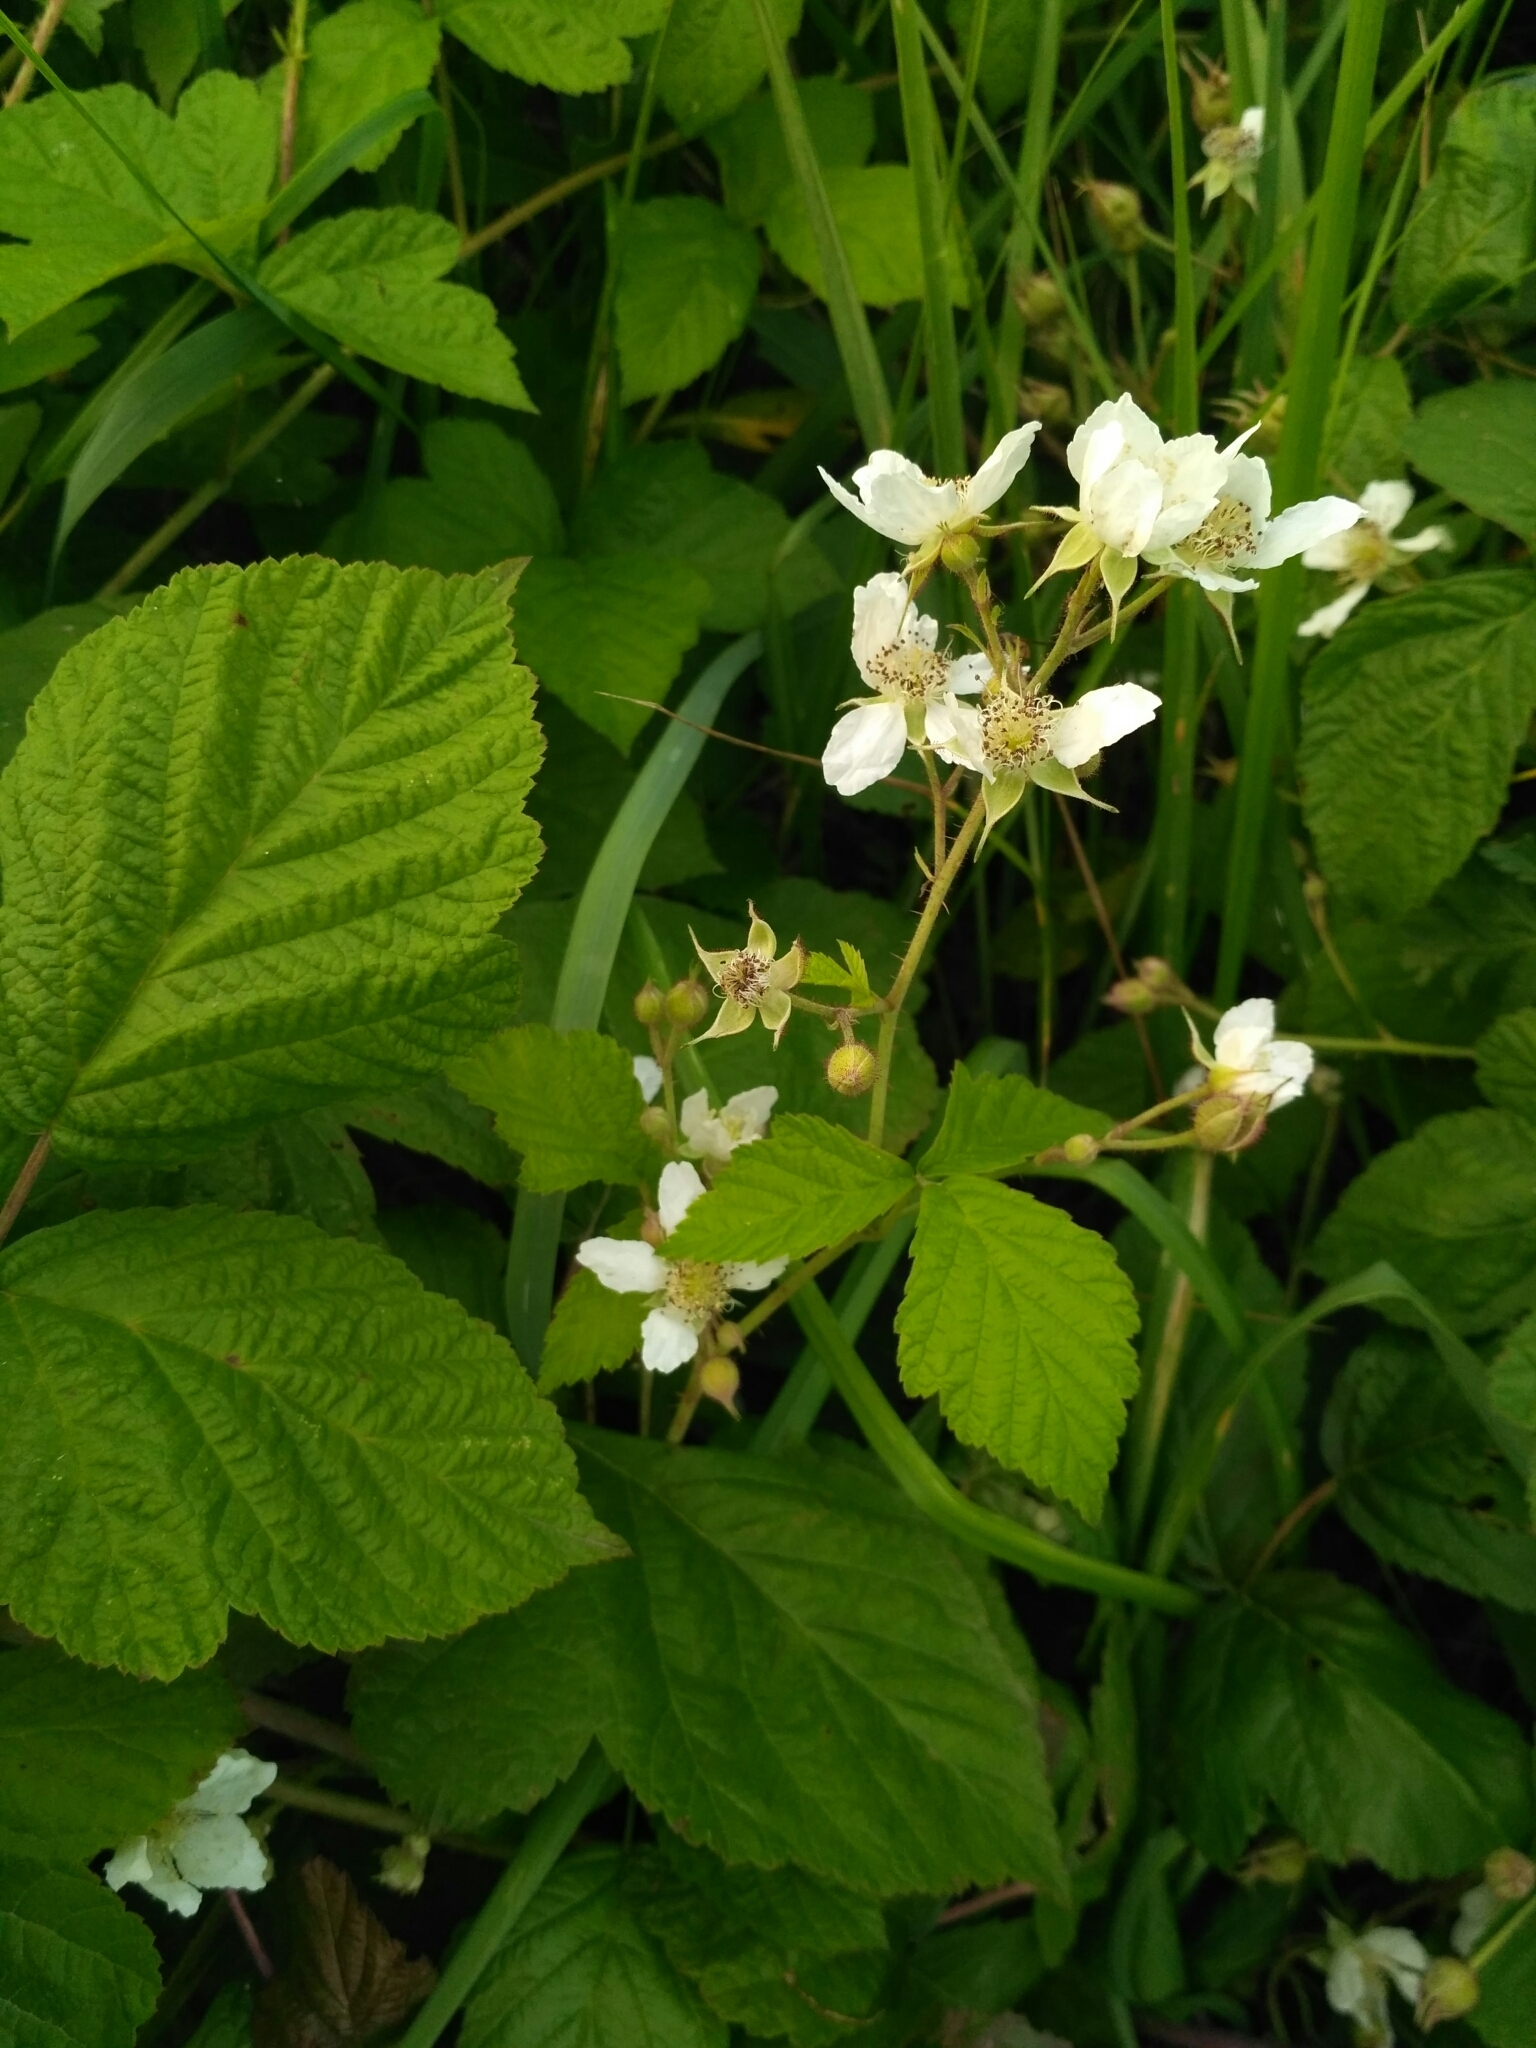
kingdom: Plantae
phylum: Tracheophyta
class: Magnoliopsida
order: Rosales
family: Rosaceae
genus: Rubus
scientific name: Rubus caesius
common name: Dewberry
